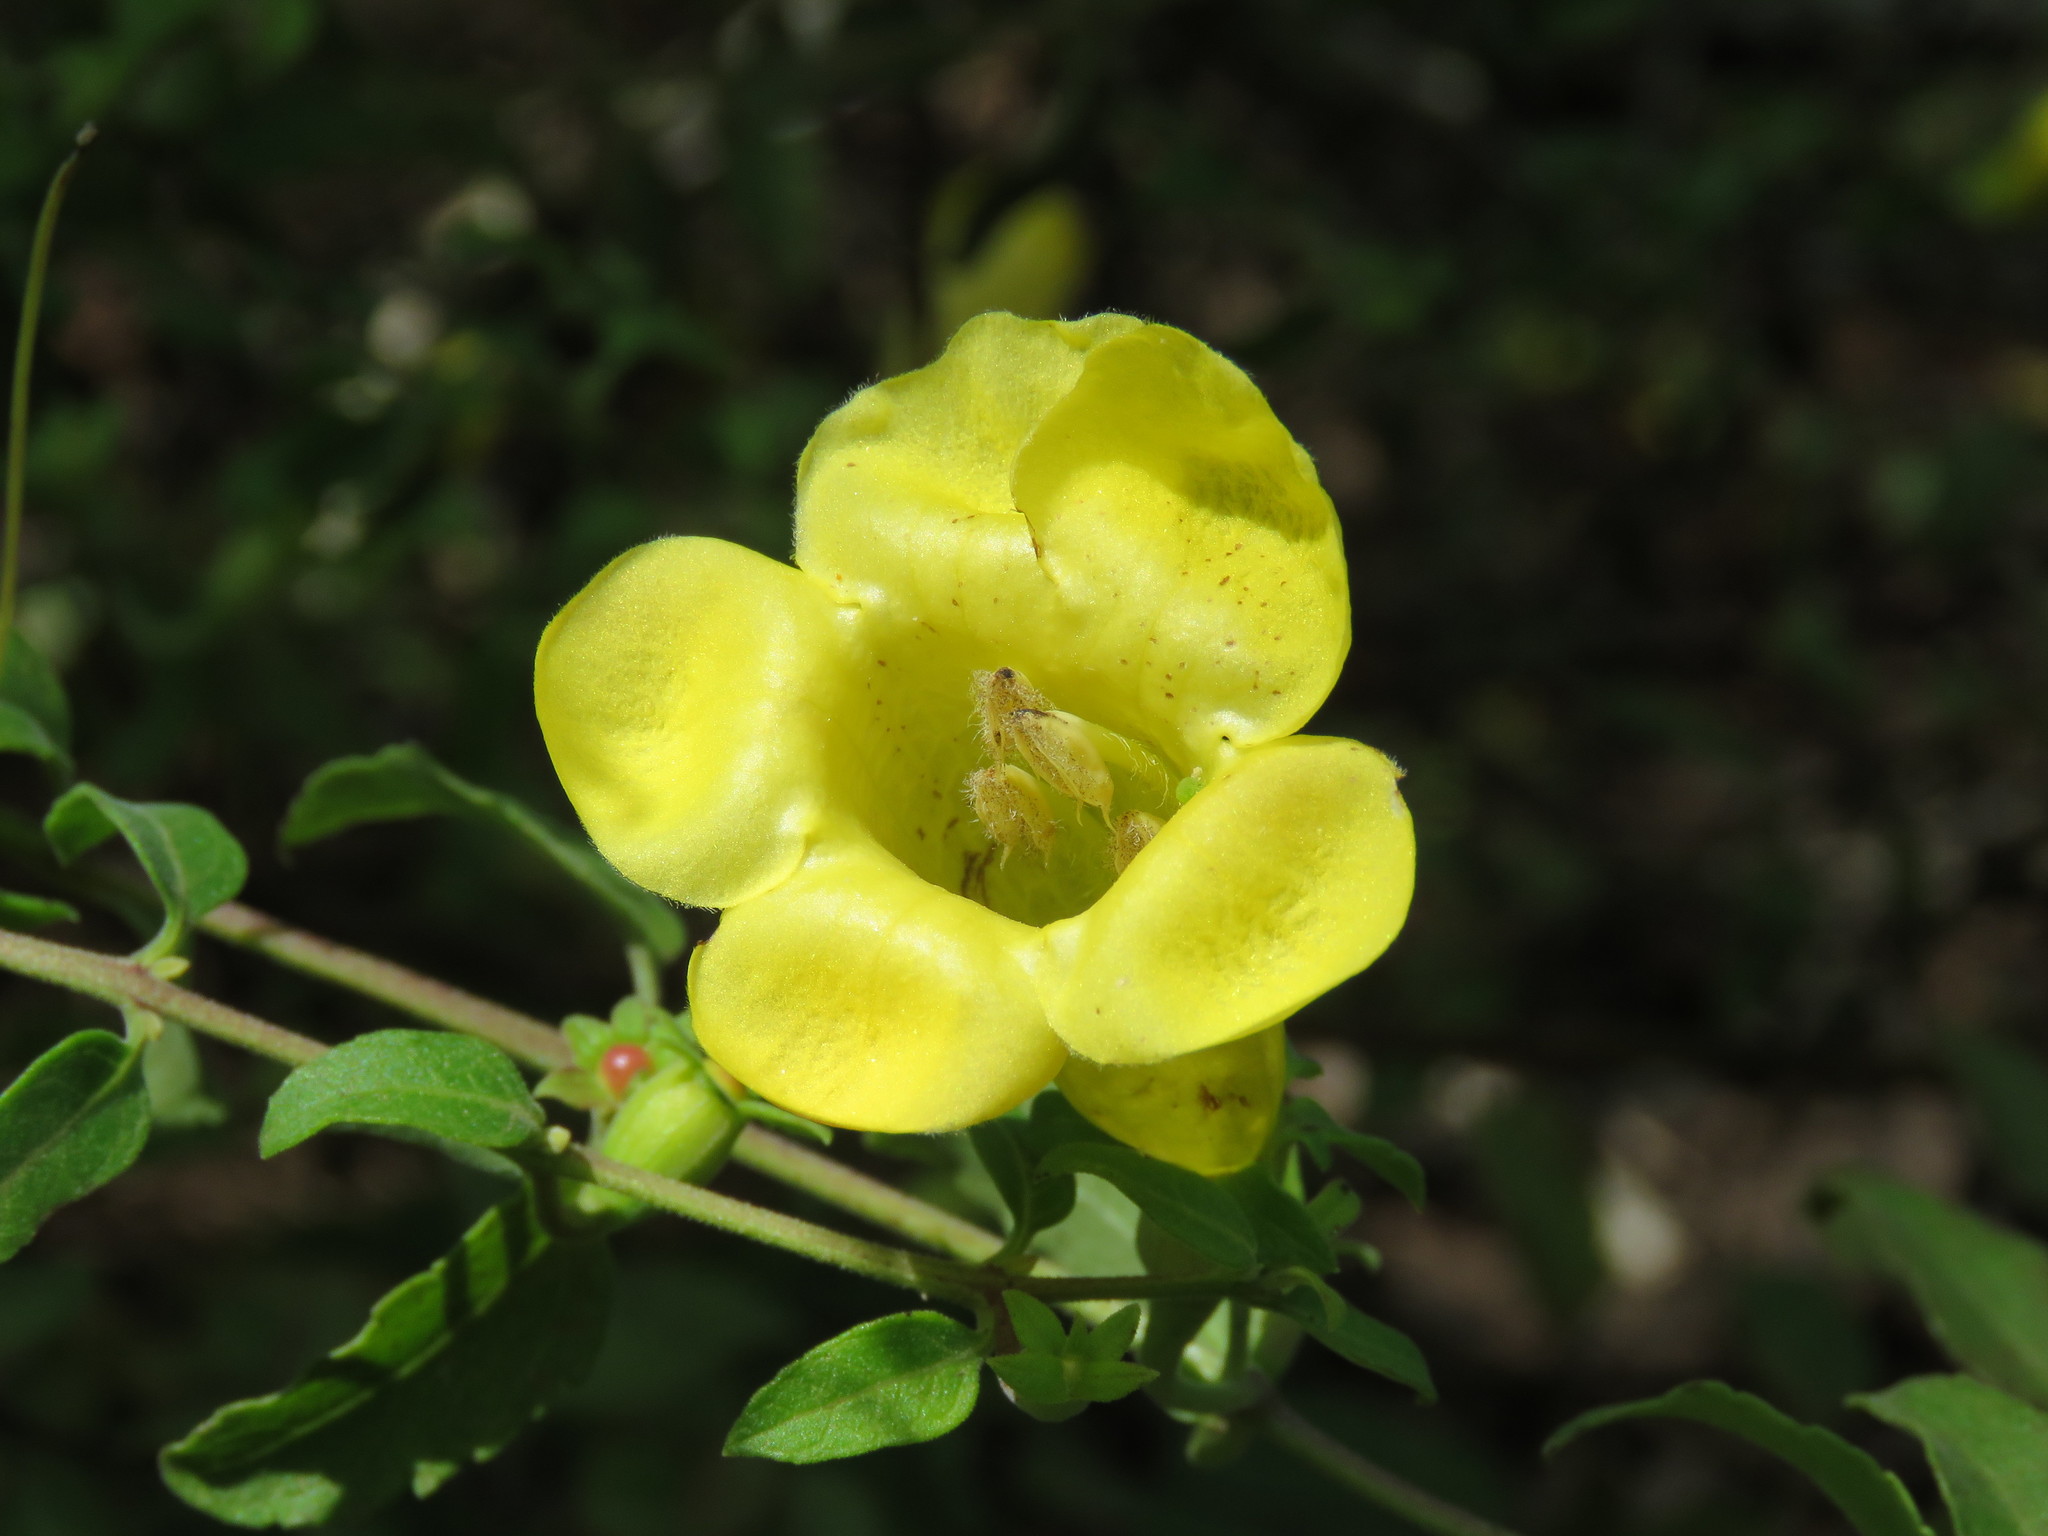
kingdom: Plantae
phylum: Tracheophyta
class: Magnoliopsida
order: Lamiales
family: Orobanchaceae
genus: Aureolaria
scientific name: Aureolaria grandiflora
